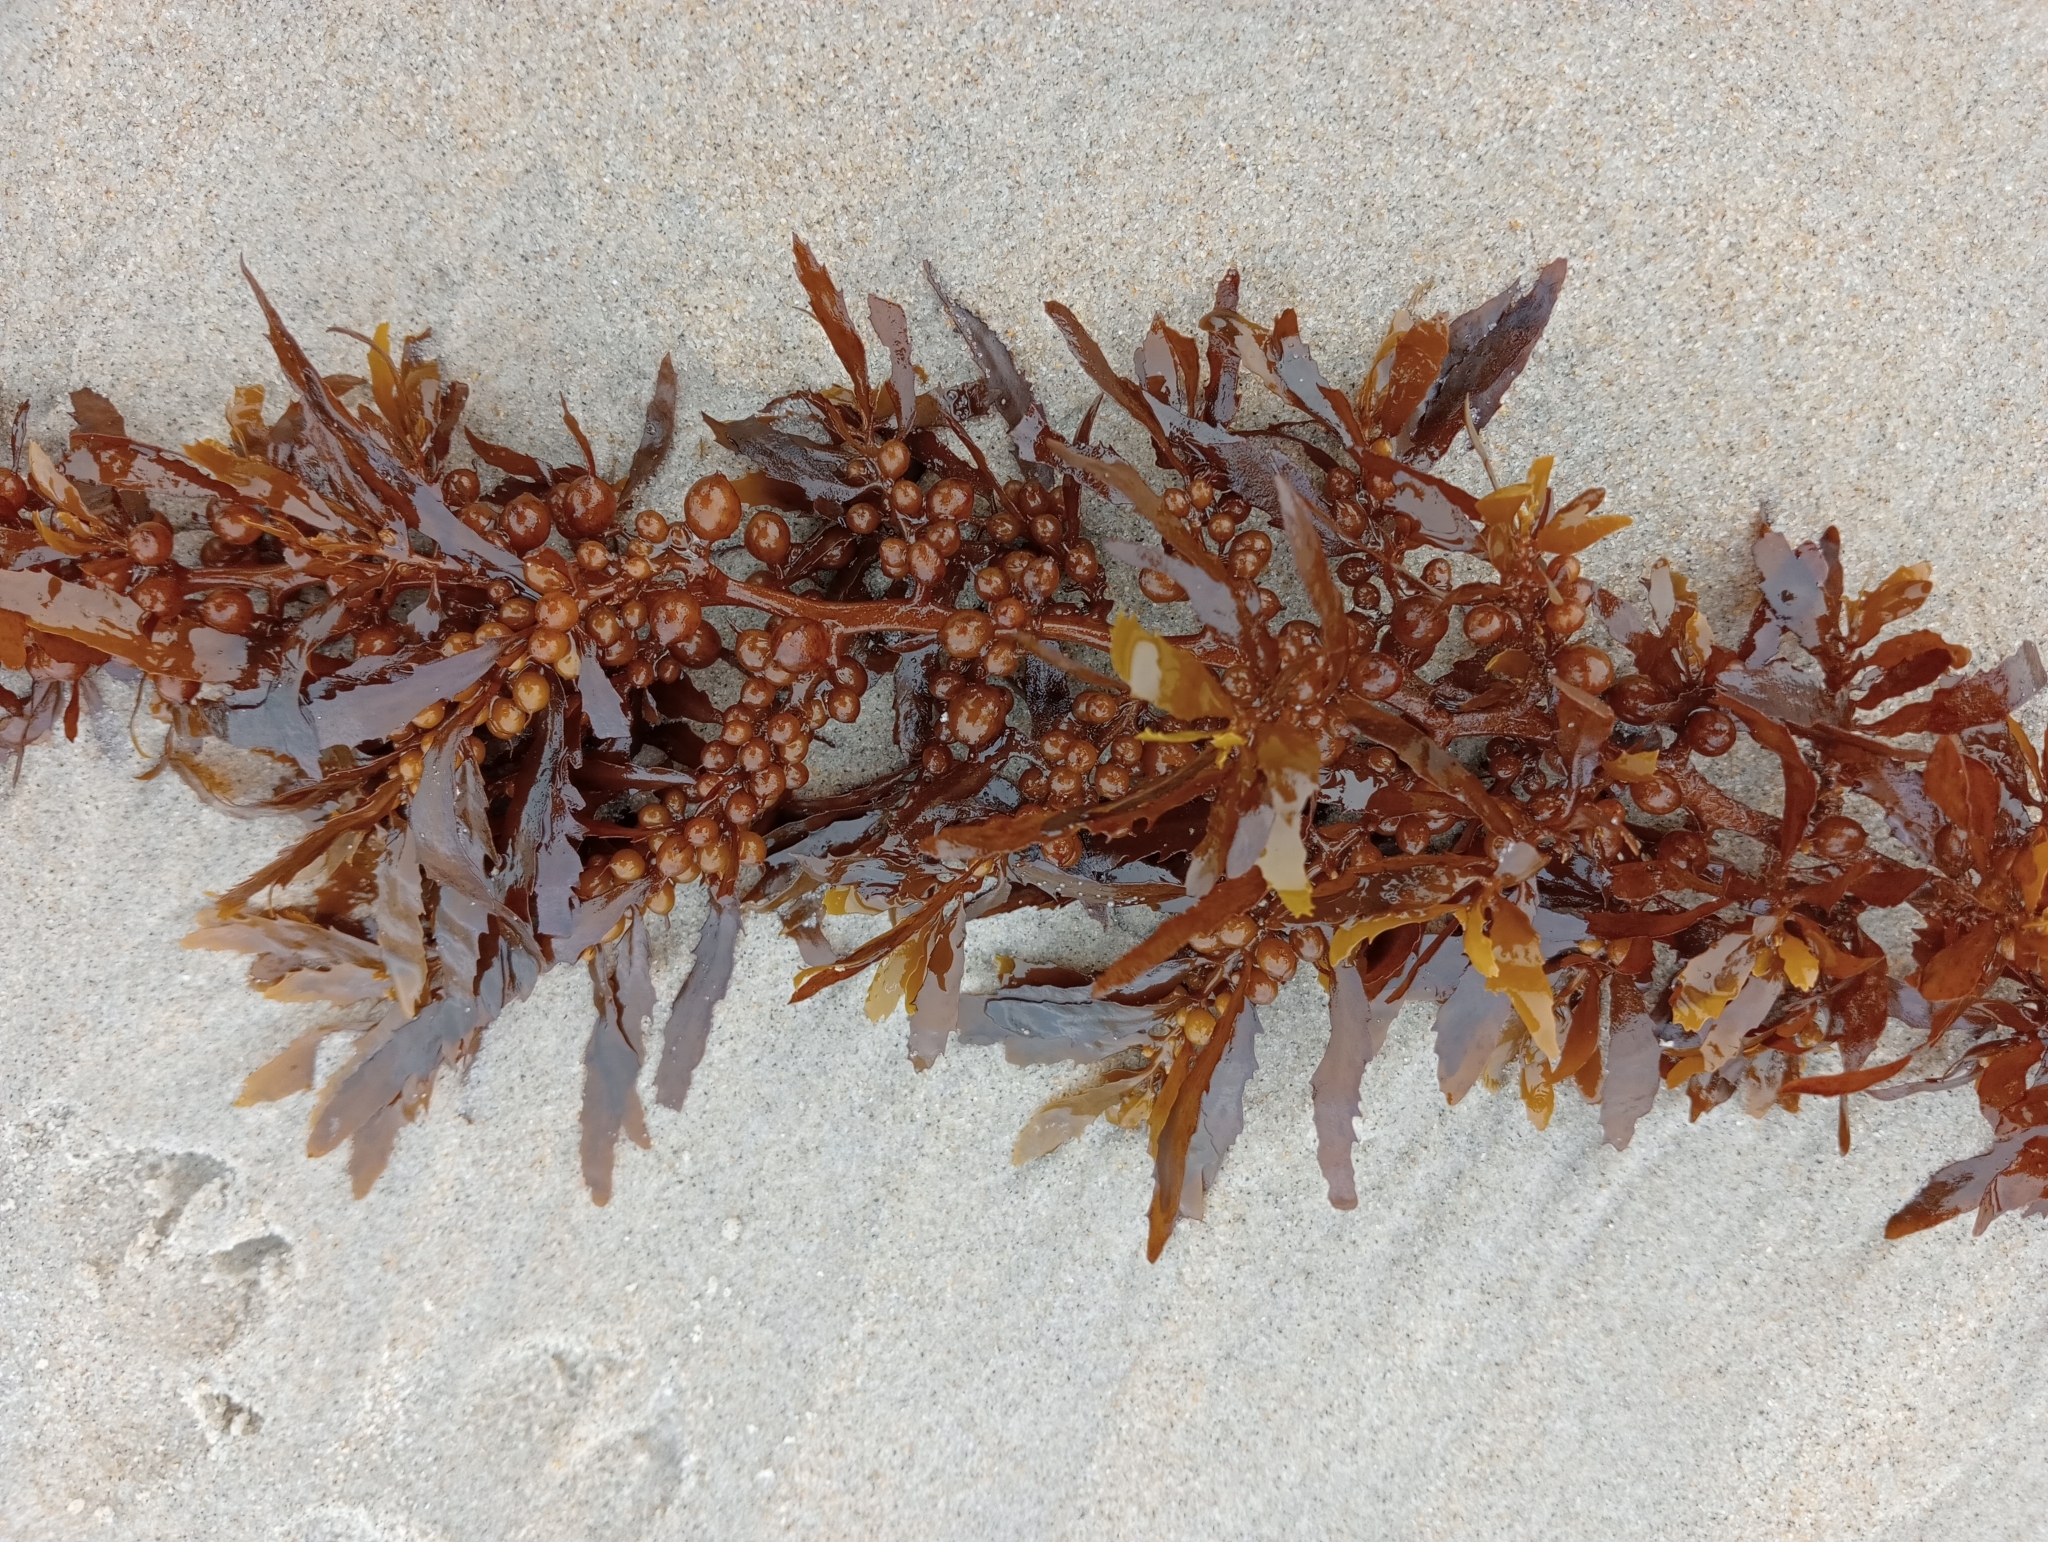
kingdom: Chromista
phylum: Ochrophyta
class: Phaeophyceae
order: Fucales
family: Sargassaceae
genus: Sargassum
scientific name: Sargassum sinclairii
